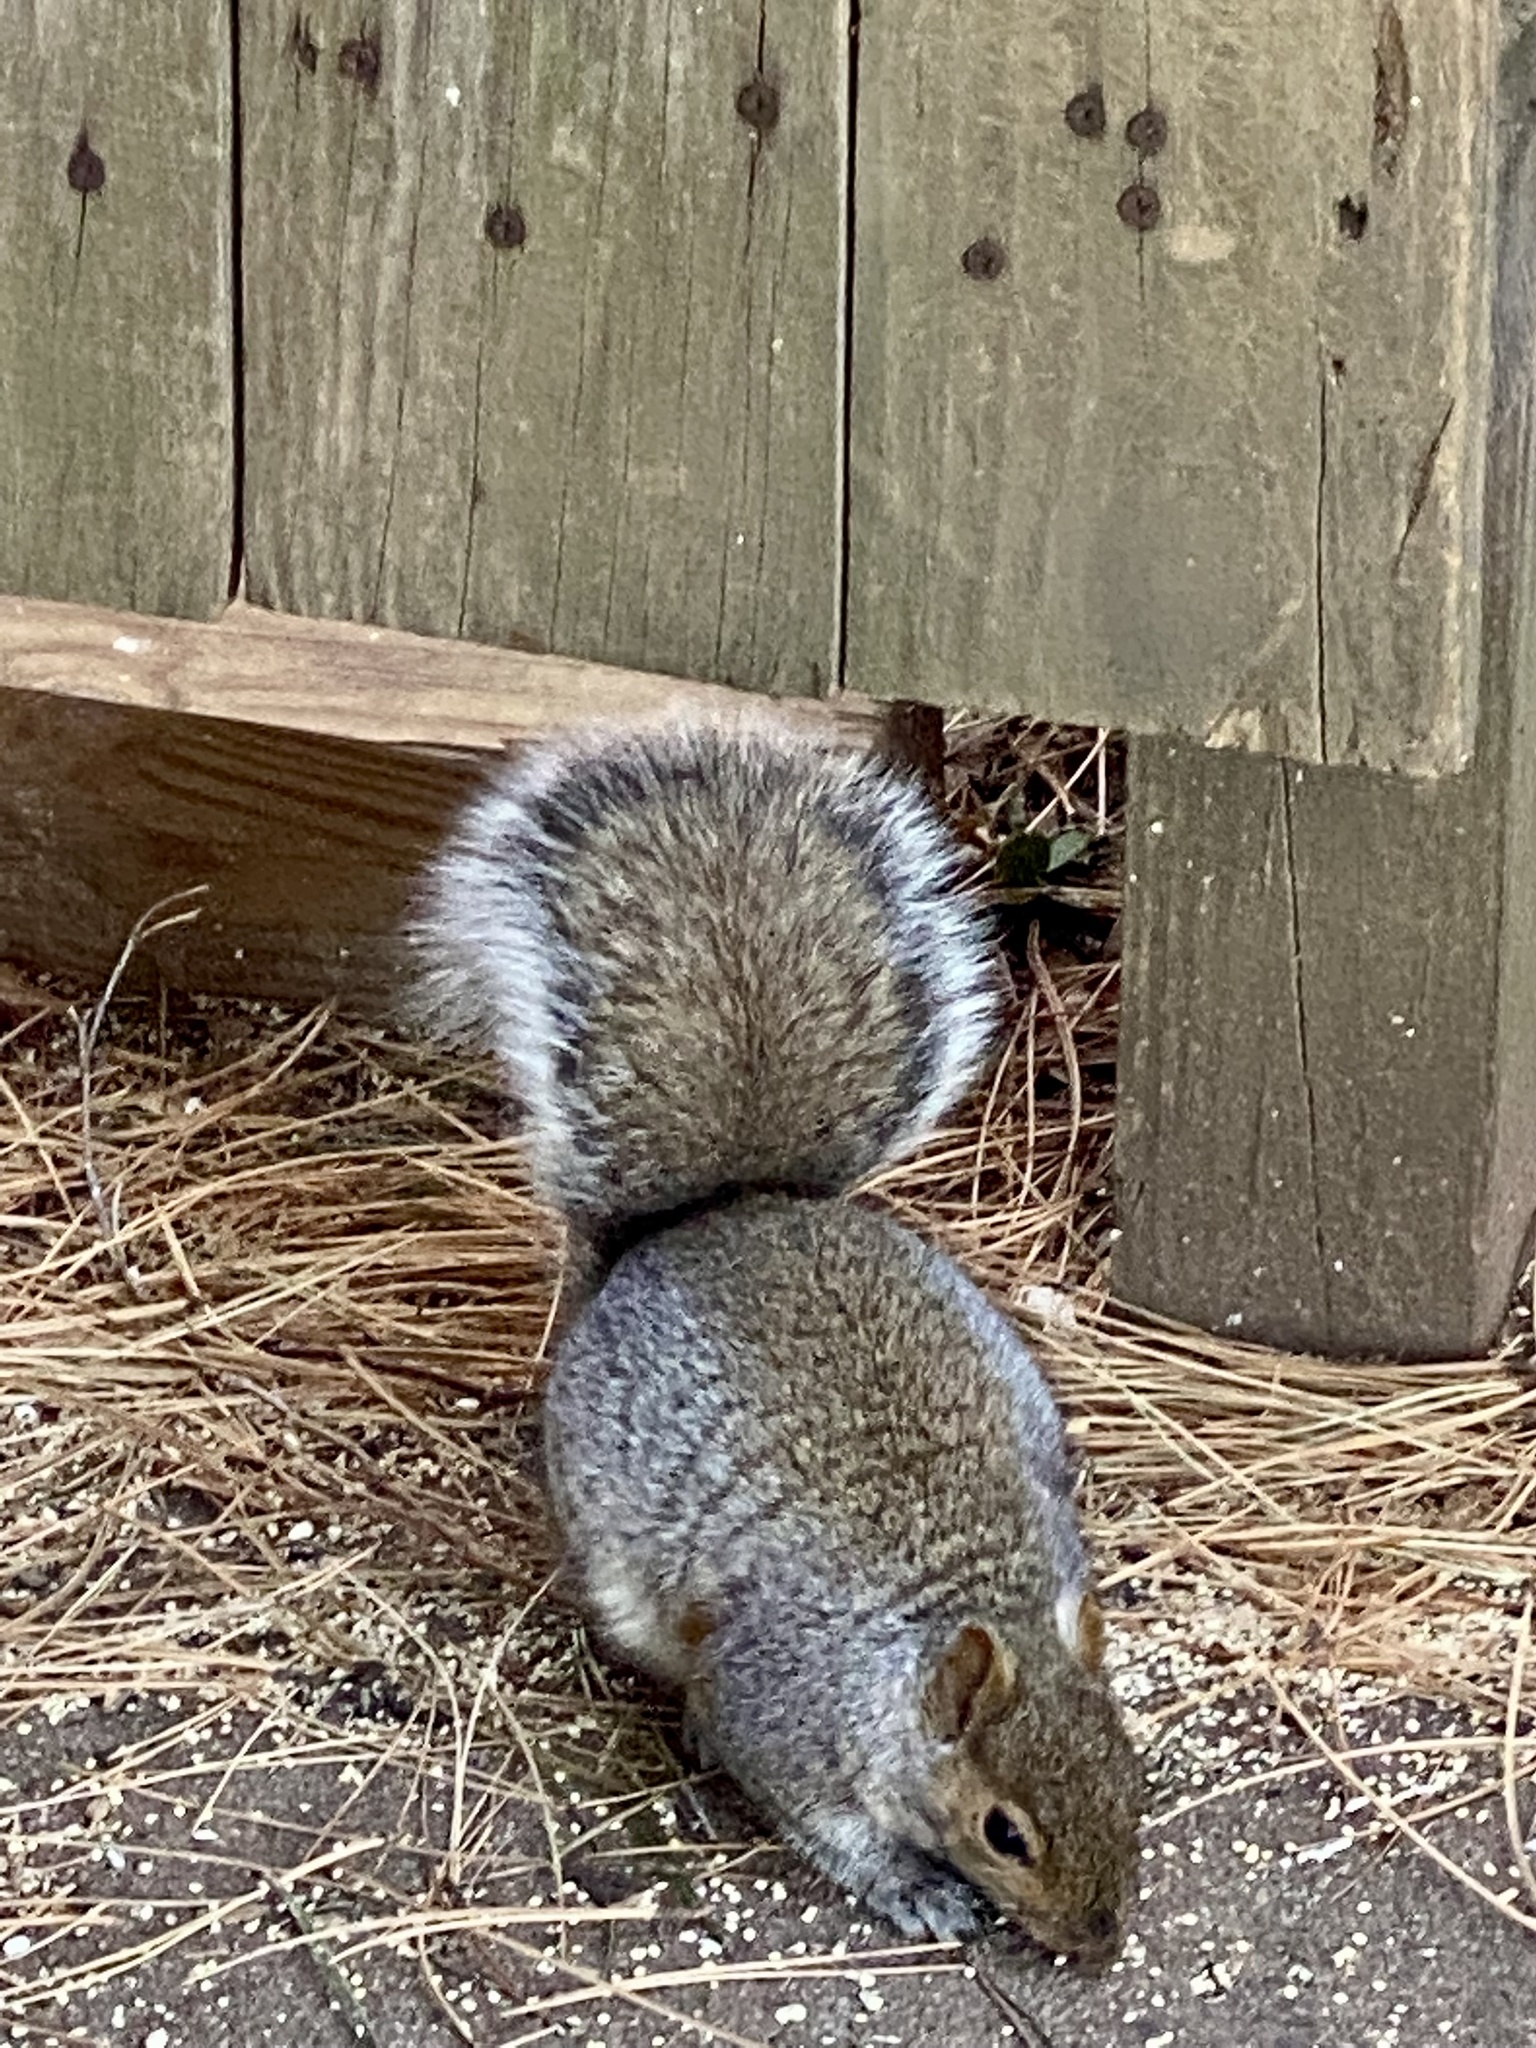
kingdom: Animalia
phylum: Chordata
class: Mammalia
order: Rodentia
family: Sciuridae
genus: Sciurus
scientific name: Sciurus carolinensis
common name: Eastern gray squirrel
